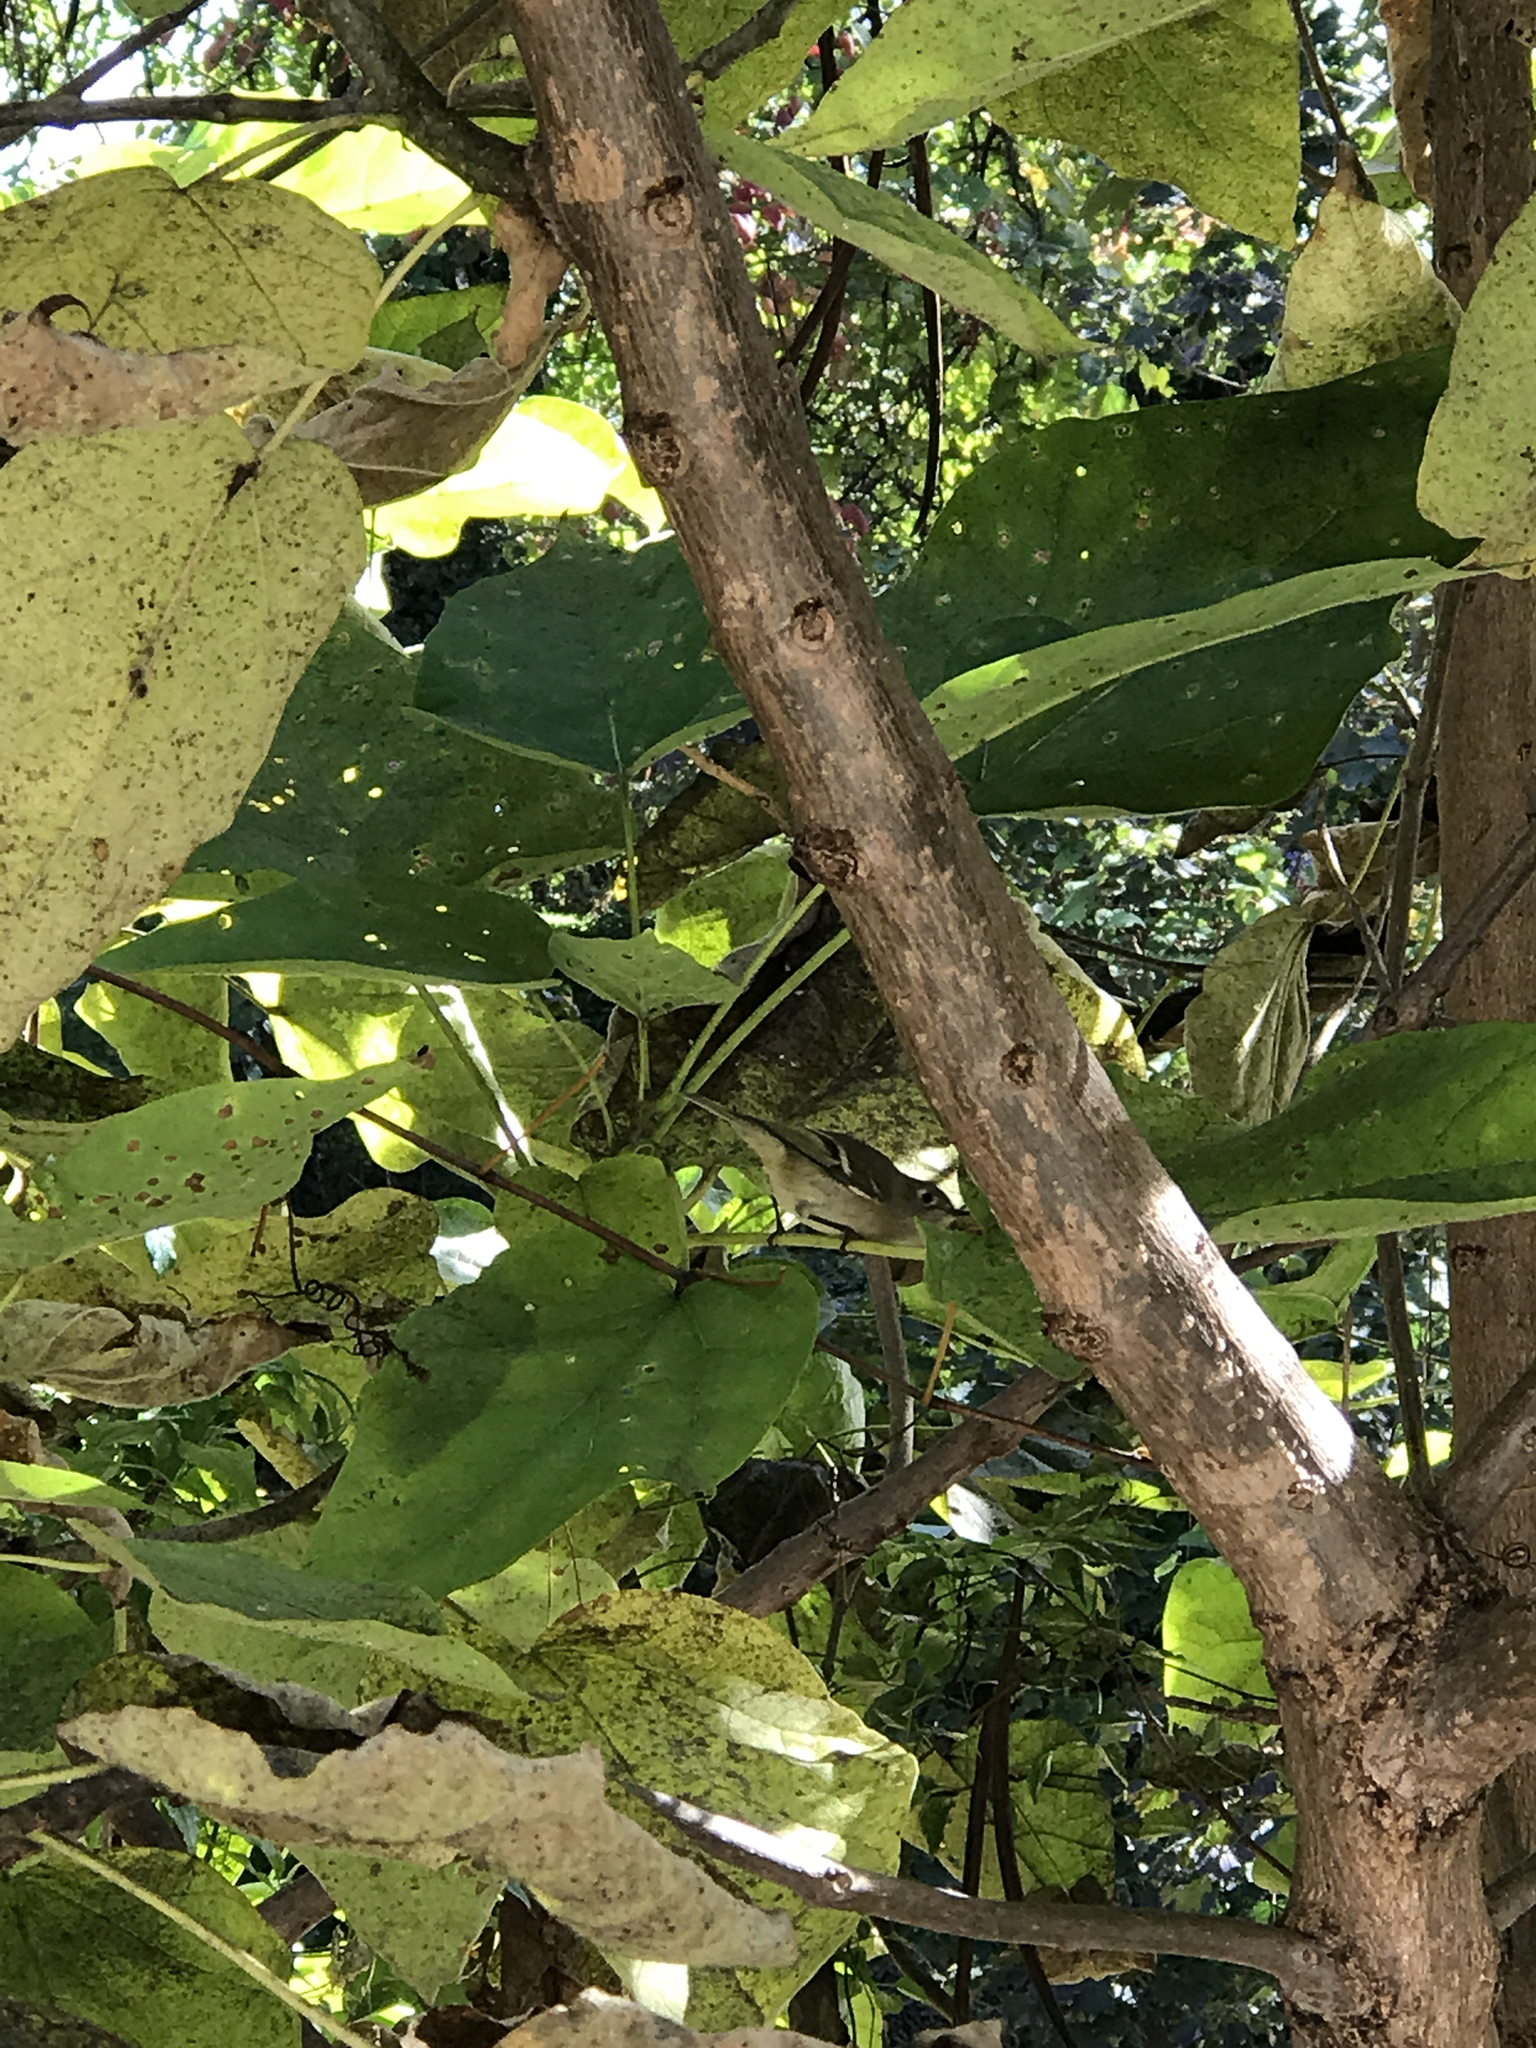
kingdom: Animalia
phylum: Chordata
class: Aves
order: Passeriformes
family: Regulidae
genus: Regulus
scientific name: Regulus calendula
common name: Ruby-crowned kinglet
